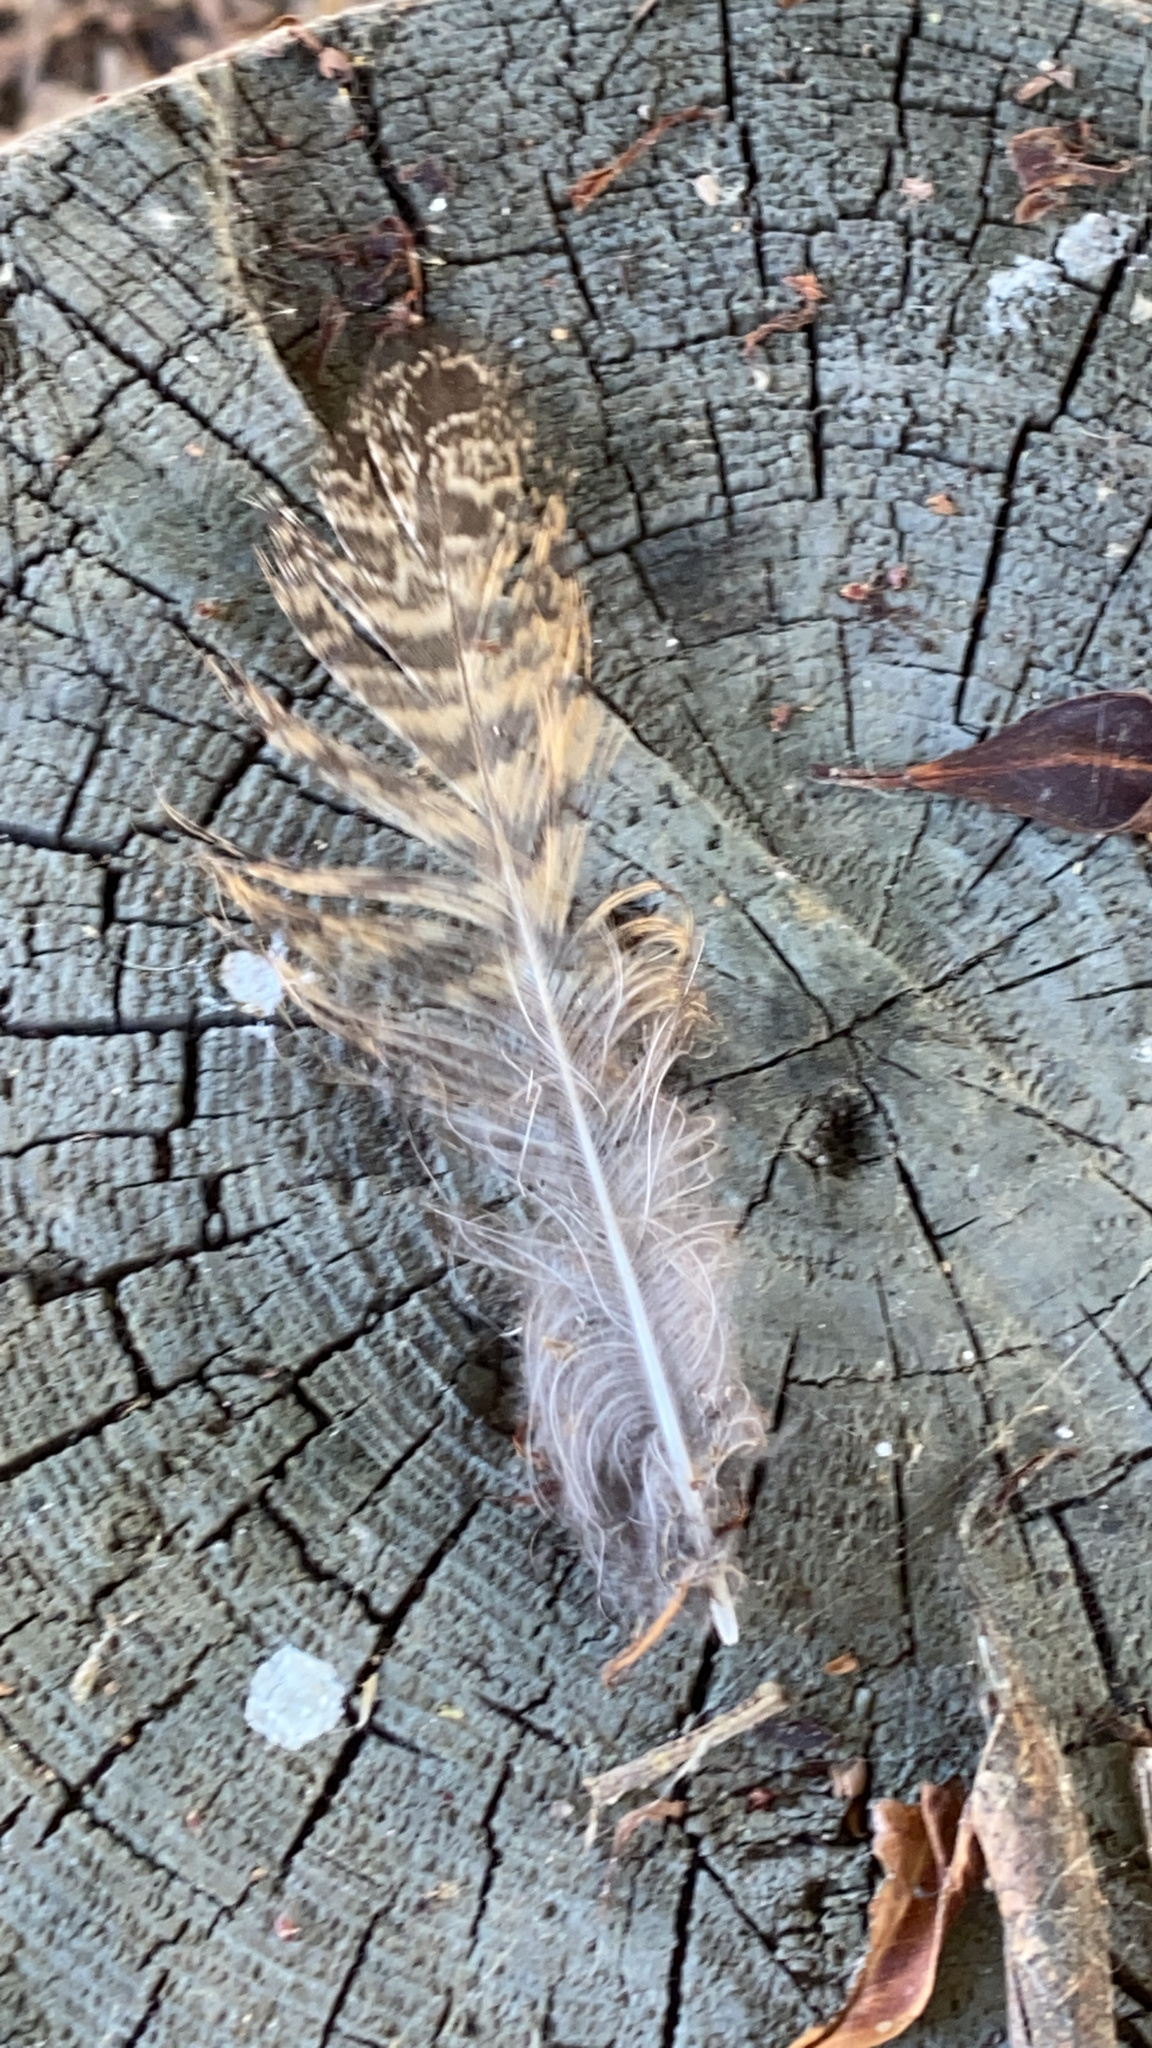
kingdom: Animalia
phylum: Chordata
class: Aves
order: Strigiformes
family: Strigidae
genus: Bubo
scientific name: Bubo virginianus
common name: Great horned owl
